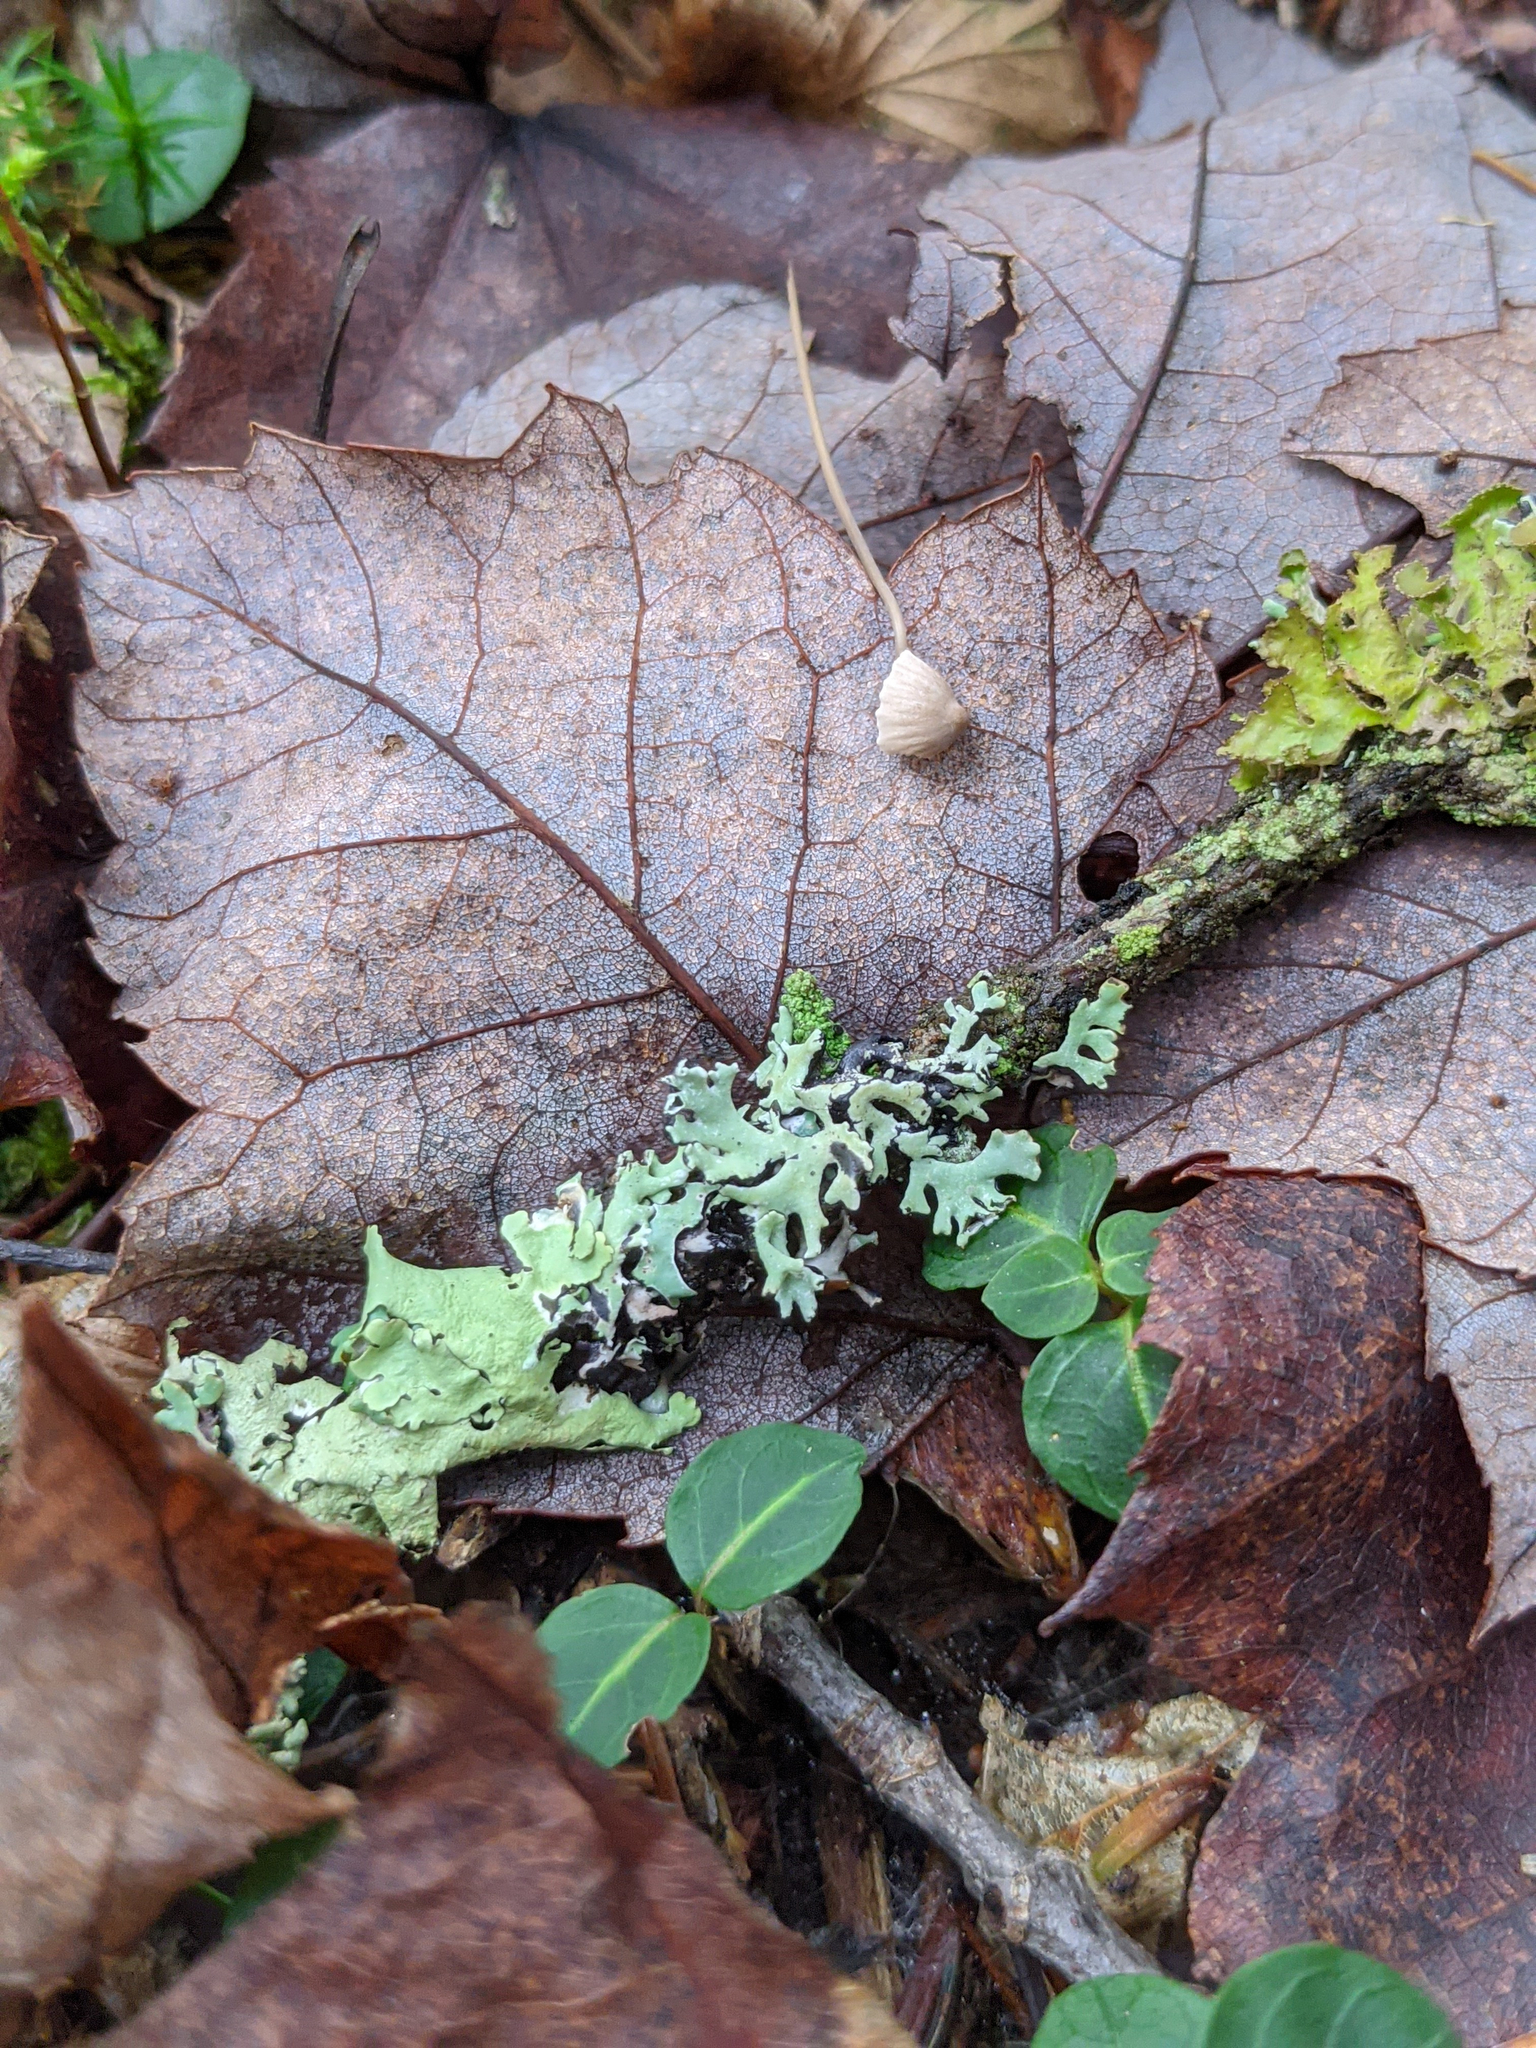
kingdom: Plantae
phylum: Tracheophyta
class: Magnoliopsida
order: Gentianales
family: Rubiaceae
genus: Mitchella
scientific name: Mitchella repens
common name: Partridge-berry
